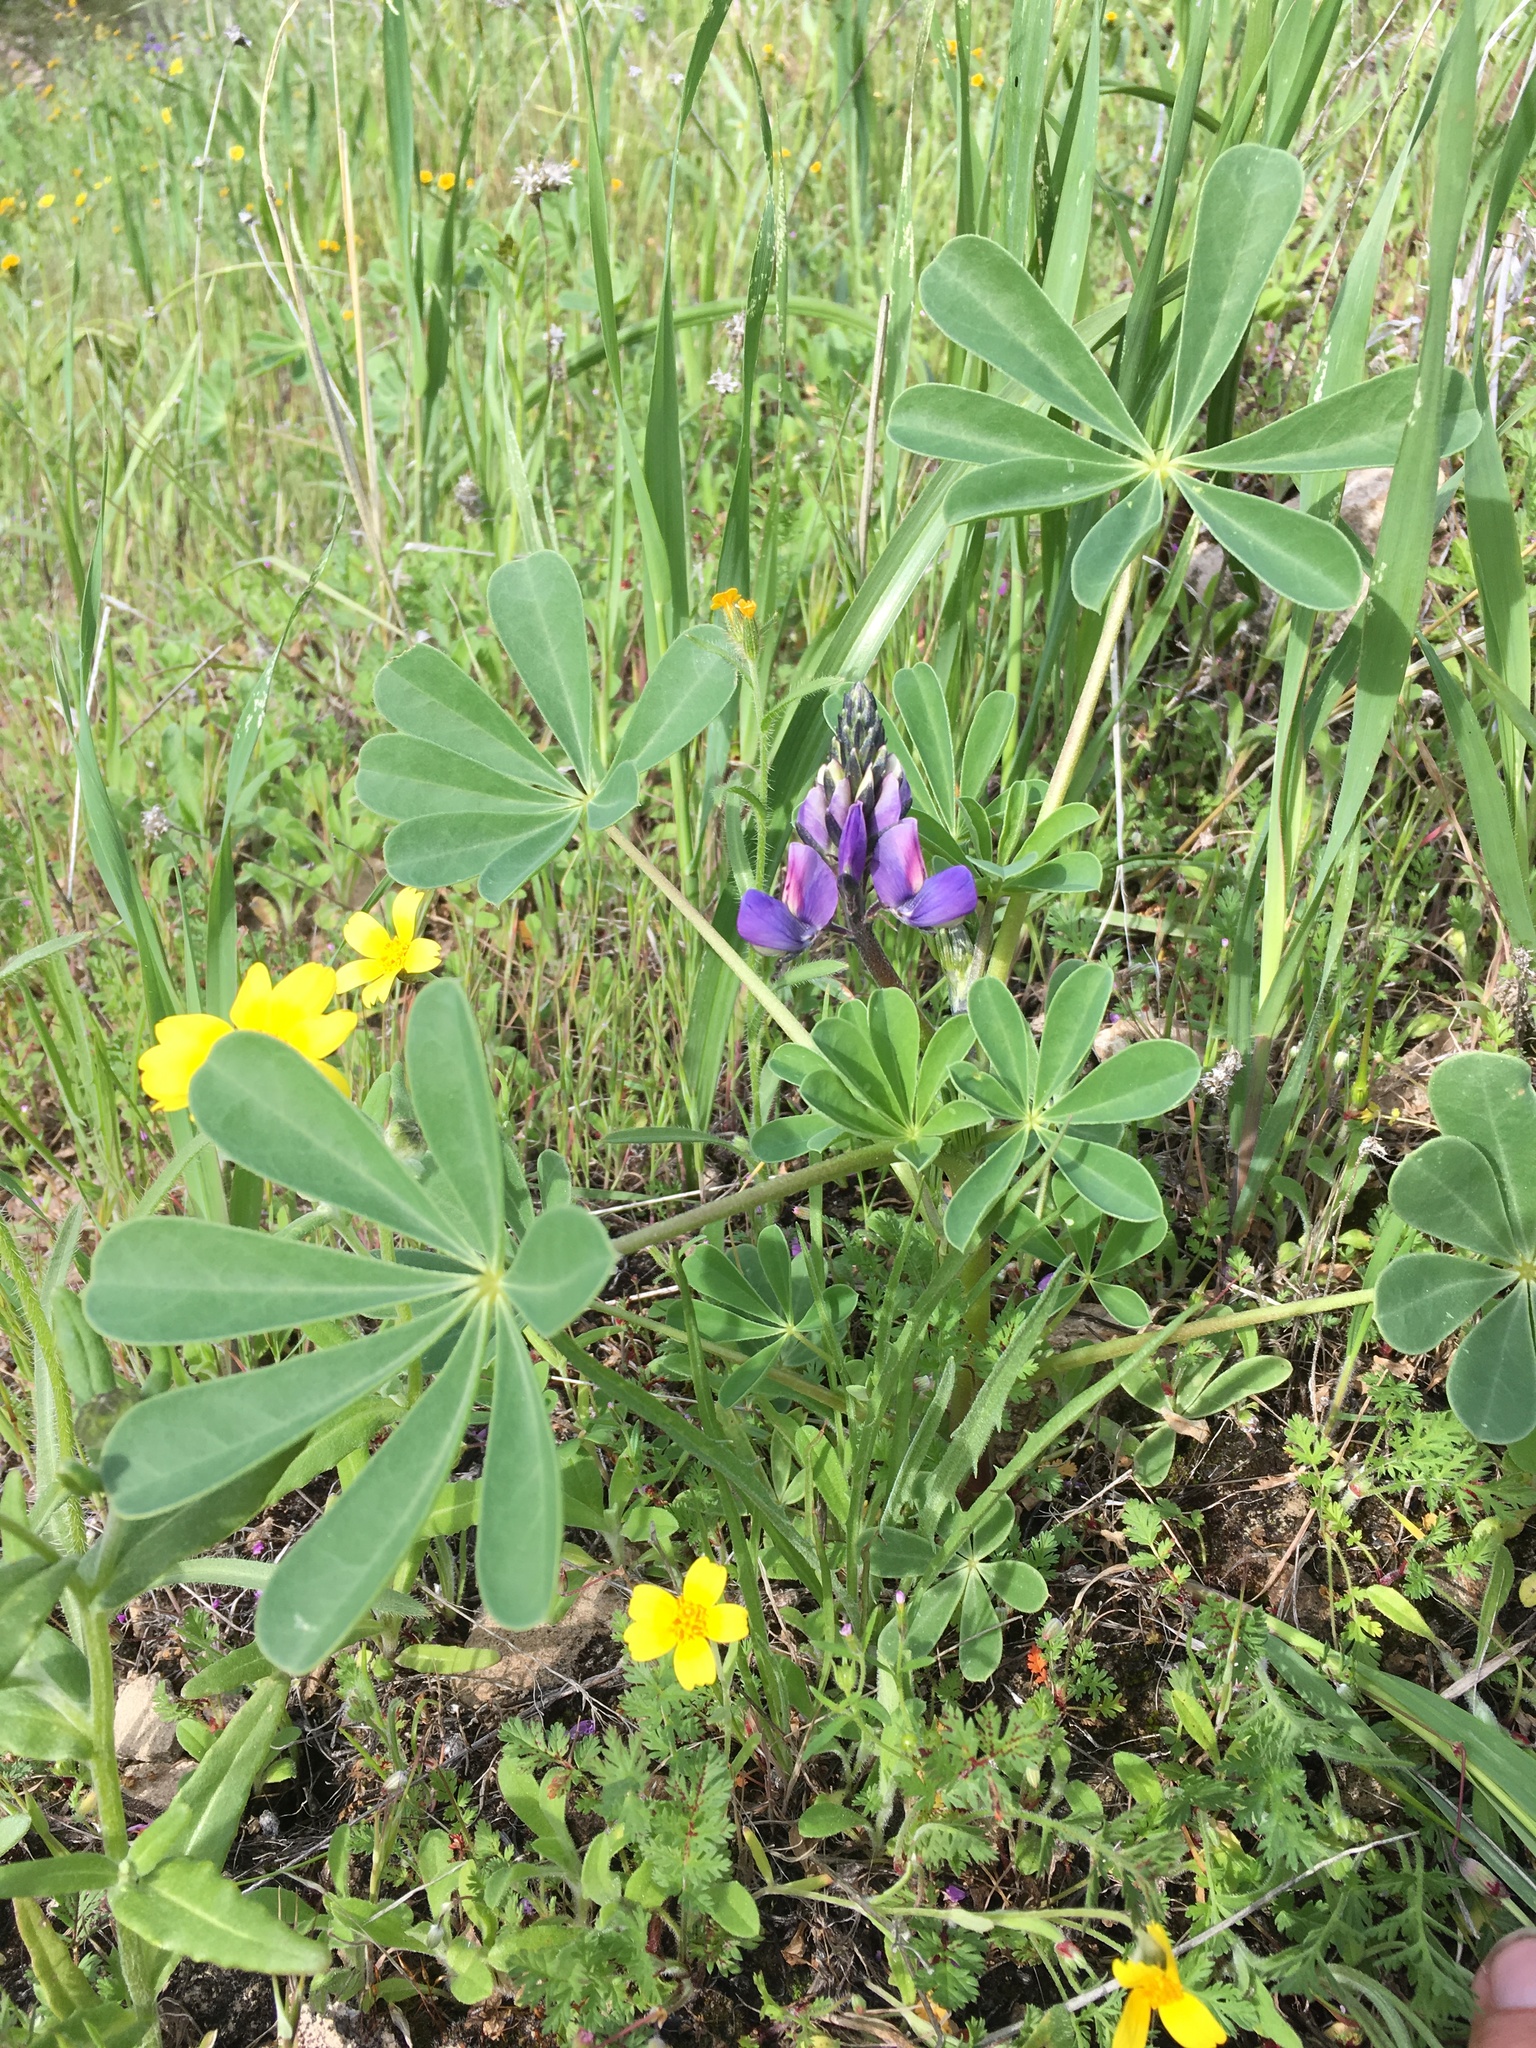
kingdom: Plantae
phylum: Tracheophyta
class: Magnoliopsida
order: Fabales
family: Fabaceae
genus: Lupinus
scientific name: Lupinus succulentus
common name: Arroyo lupine
